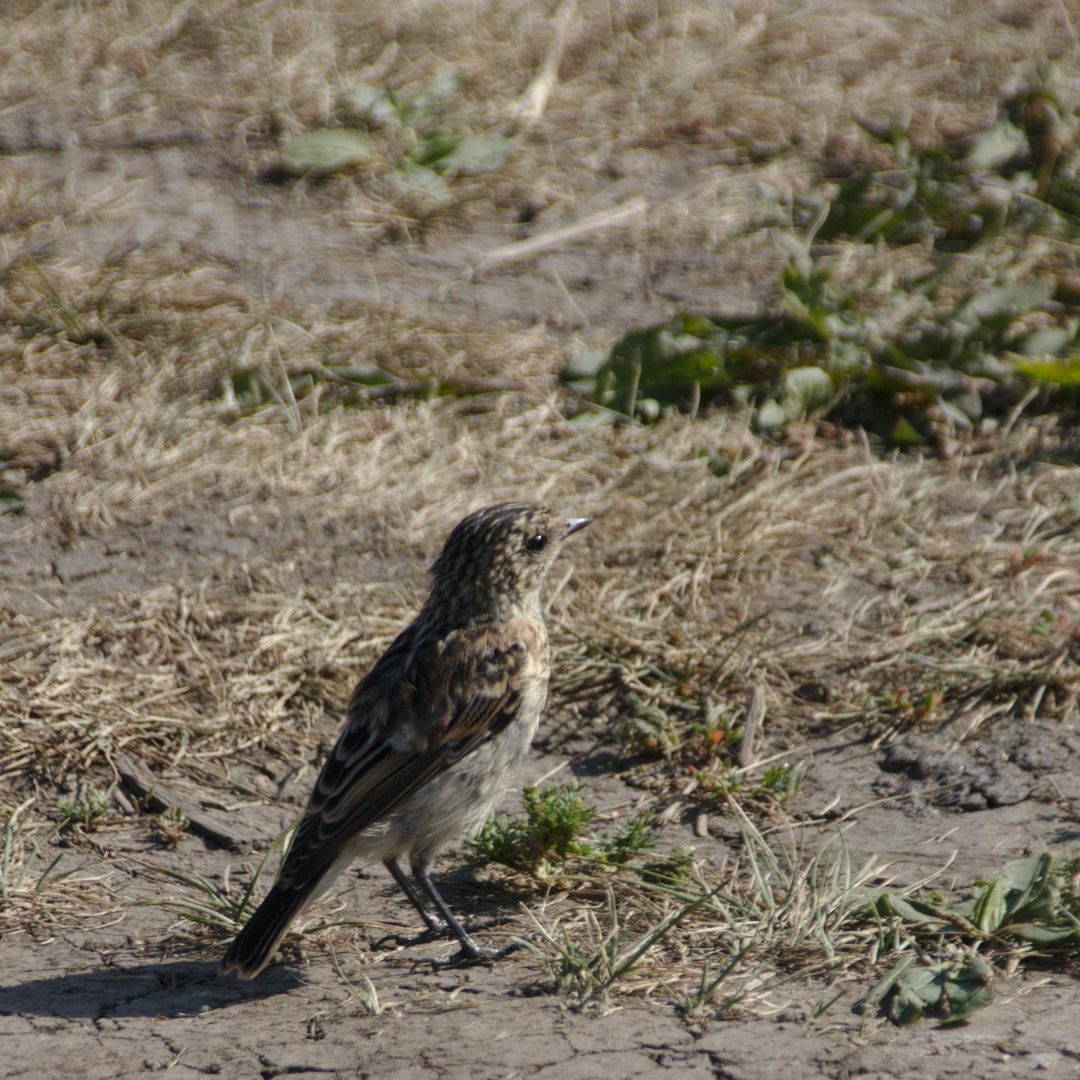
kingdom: Animalia
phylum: Chordata
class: Aves
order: Passeriformes
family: Muscicapidae
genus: Saxicola
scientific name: Saxicola maurus
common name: Siberian stonechat
